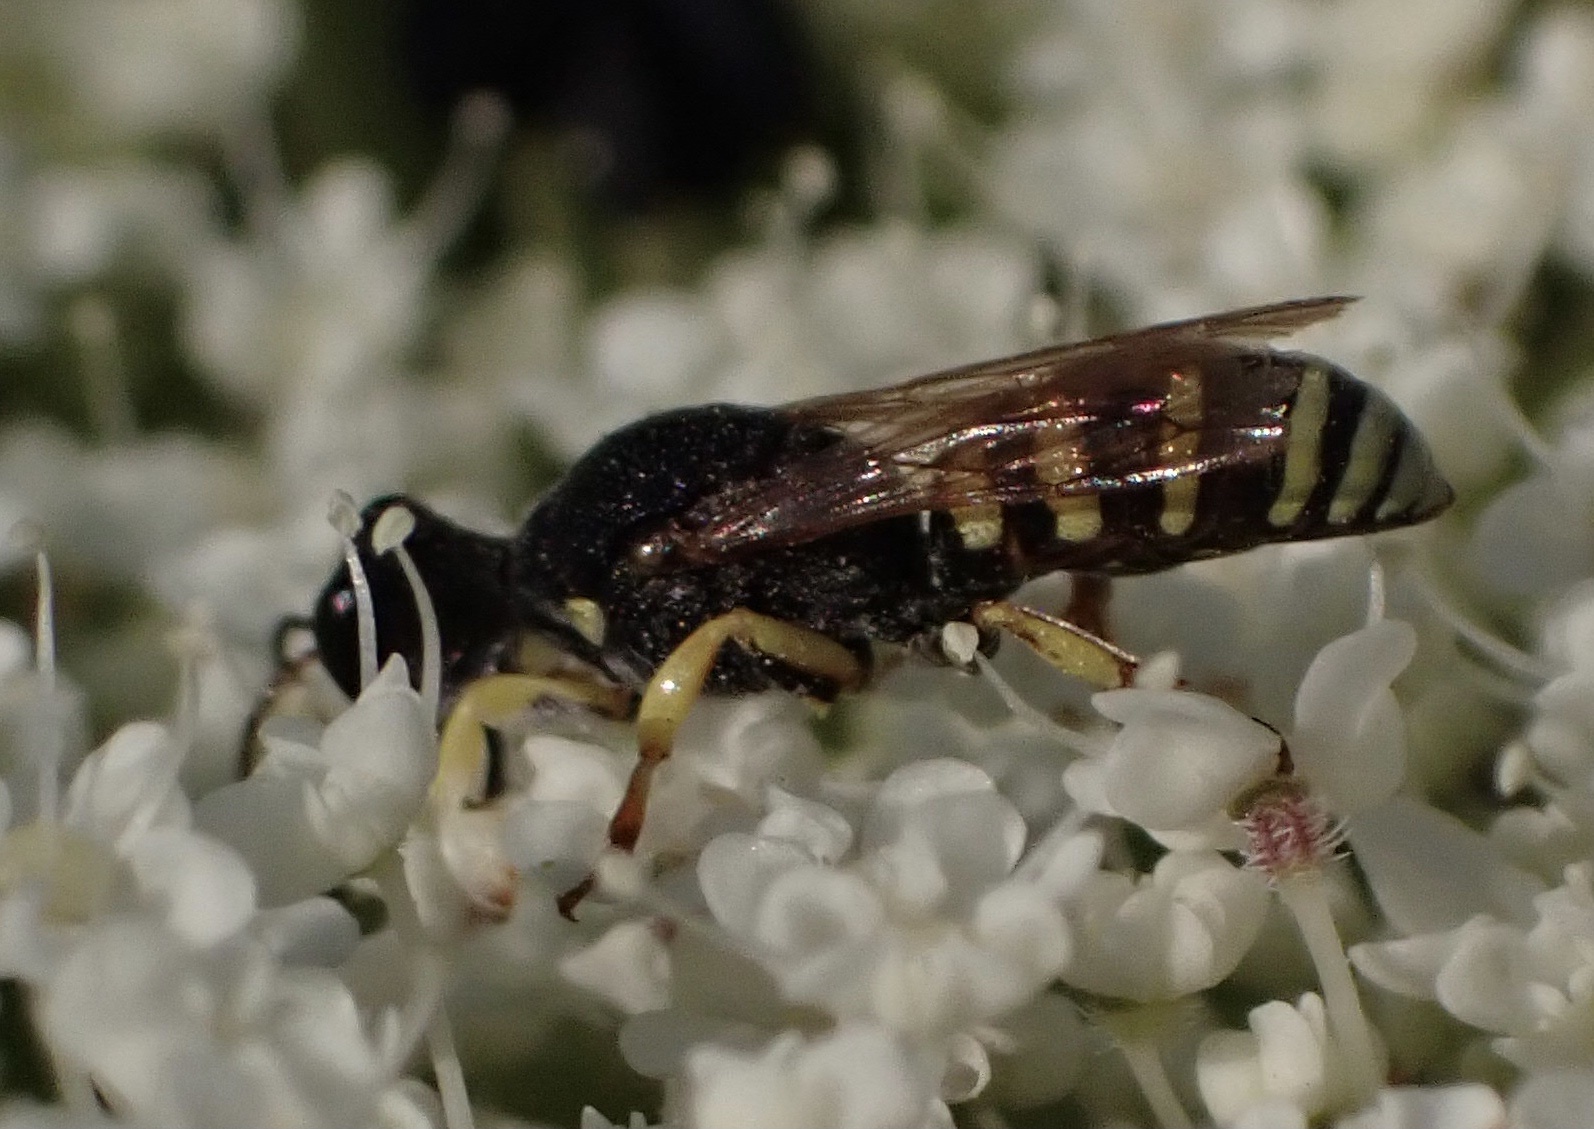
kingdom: Animalia
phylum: Arthropoda
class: Insecta
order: Hymenoptera
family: Crabronidae
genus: Lestica
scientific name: Lestica clypeata
